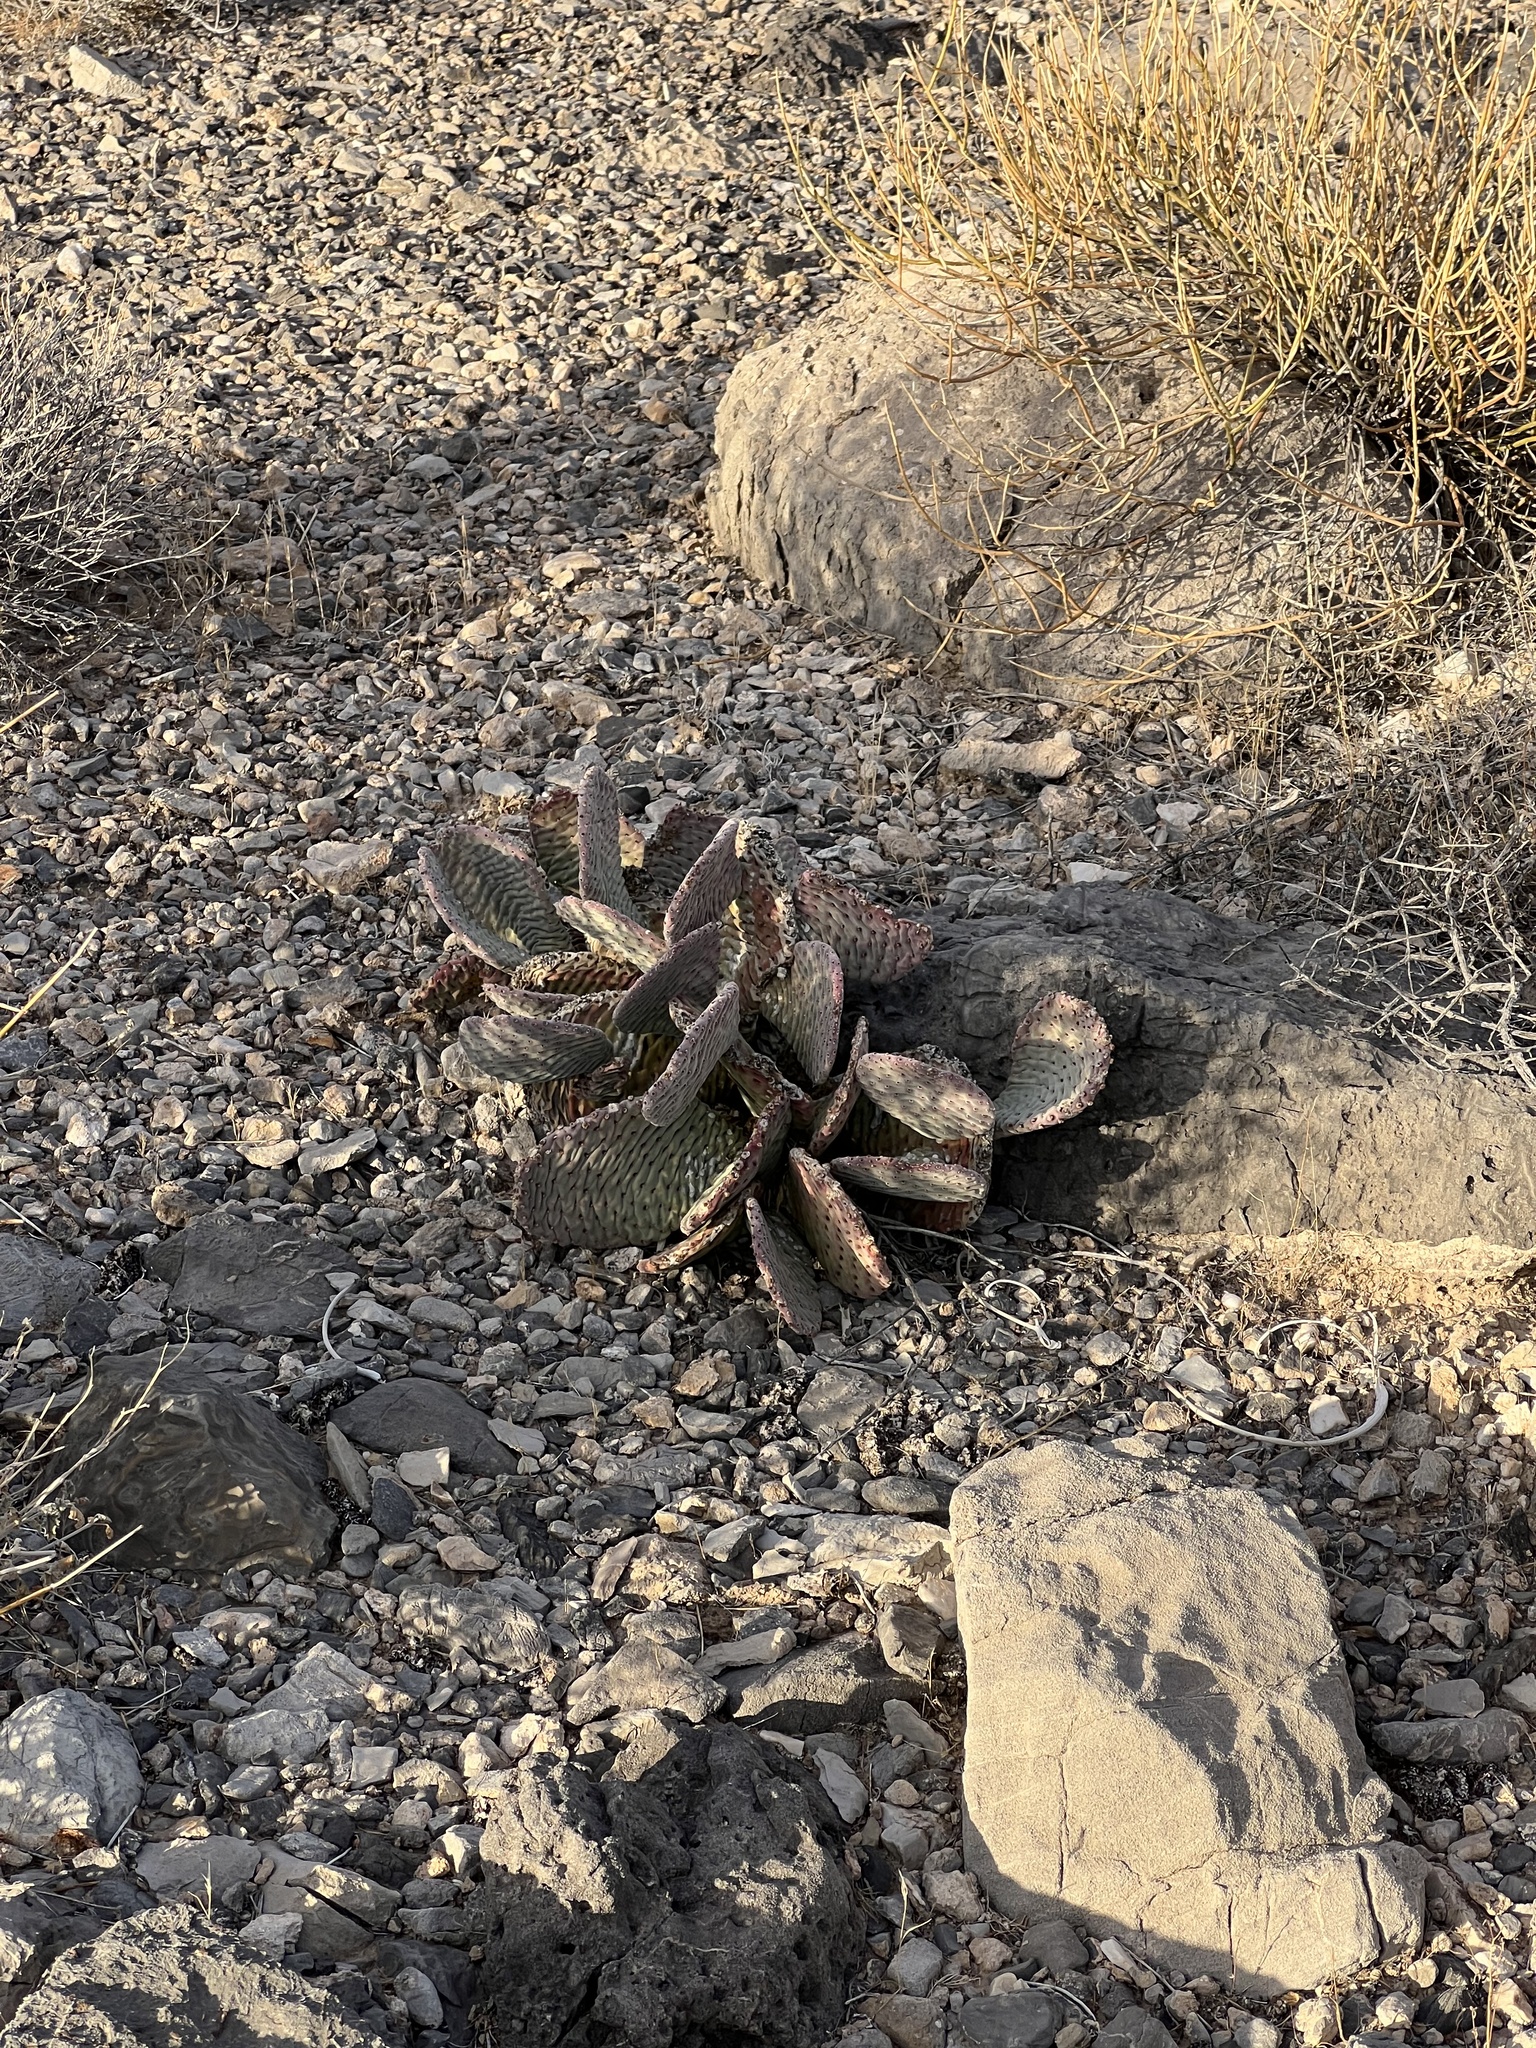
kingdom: Plantae
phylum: Tracheophyta
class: Magnoliopsida
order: Caryophyllales
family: Cactaceae
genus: Opuntia
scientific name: Opuntia basilaris
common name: Beavertail prickly-pear
